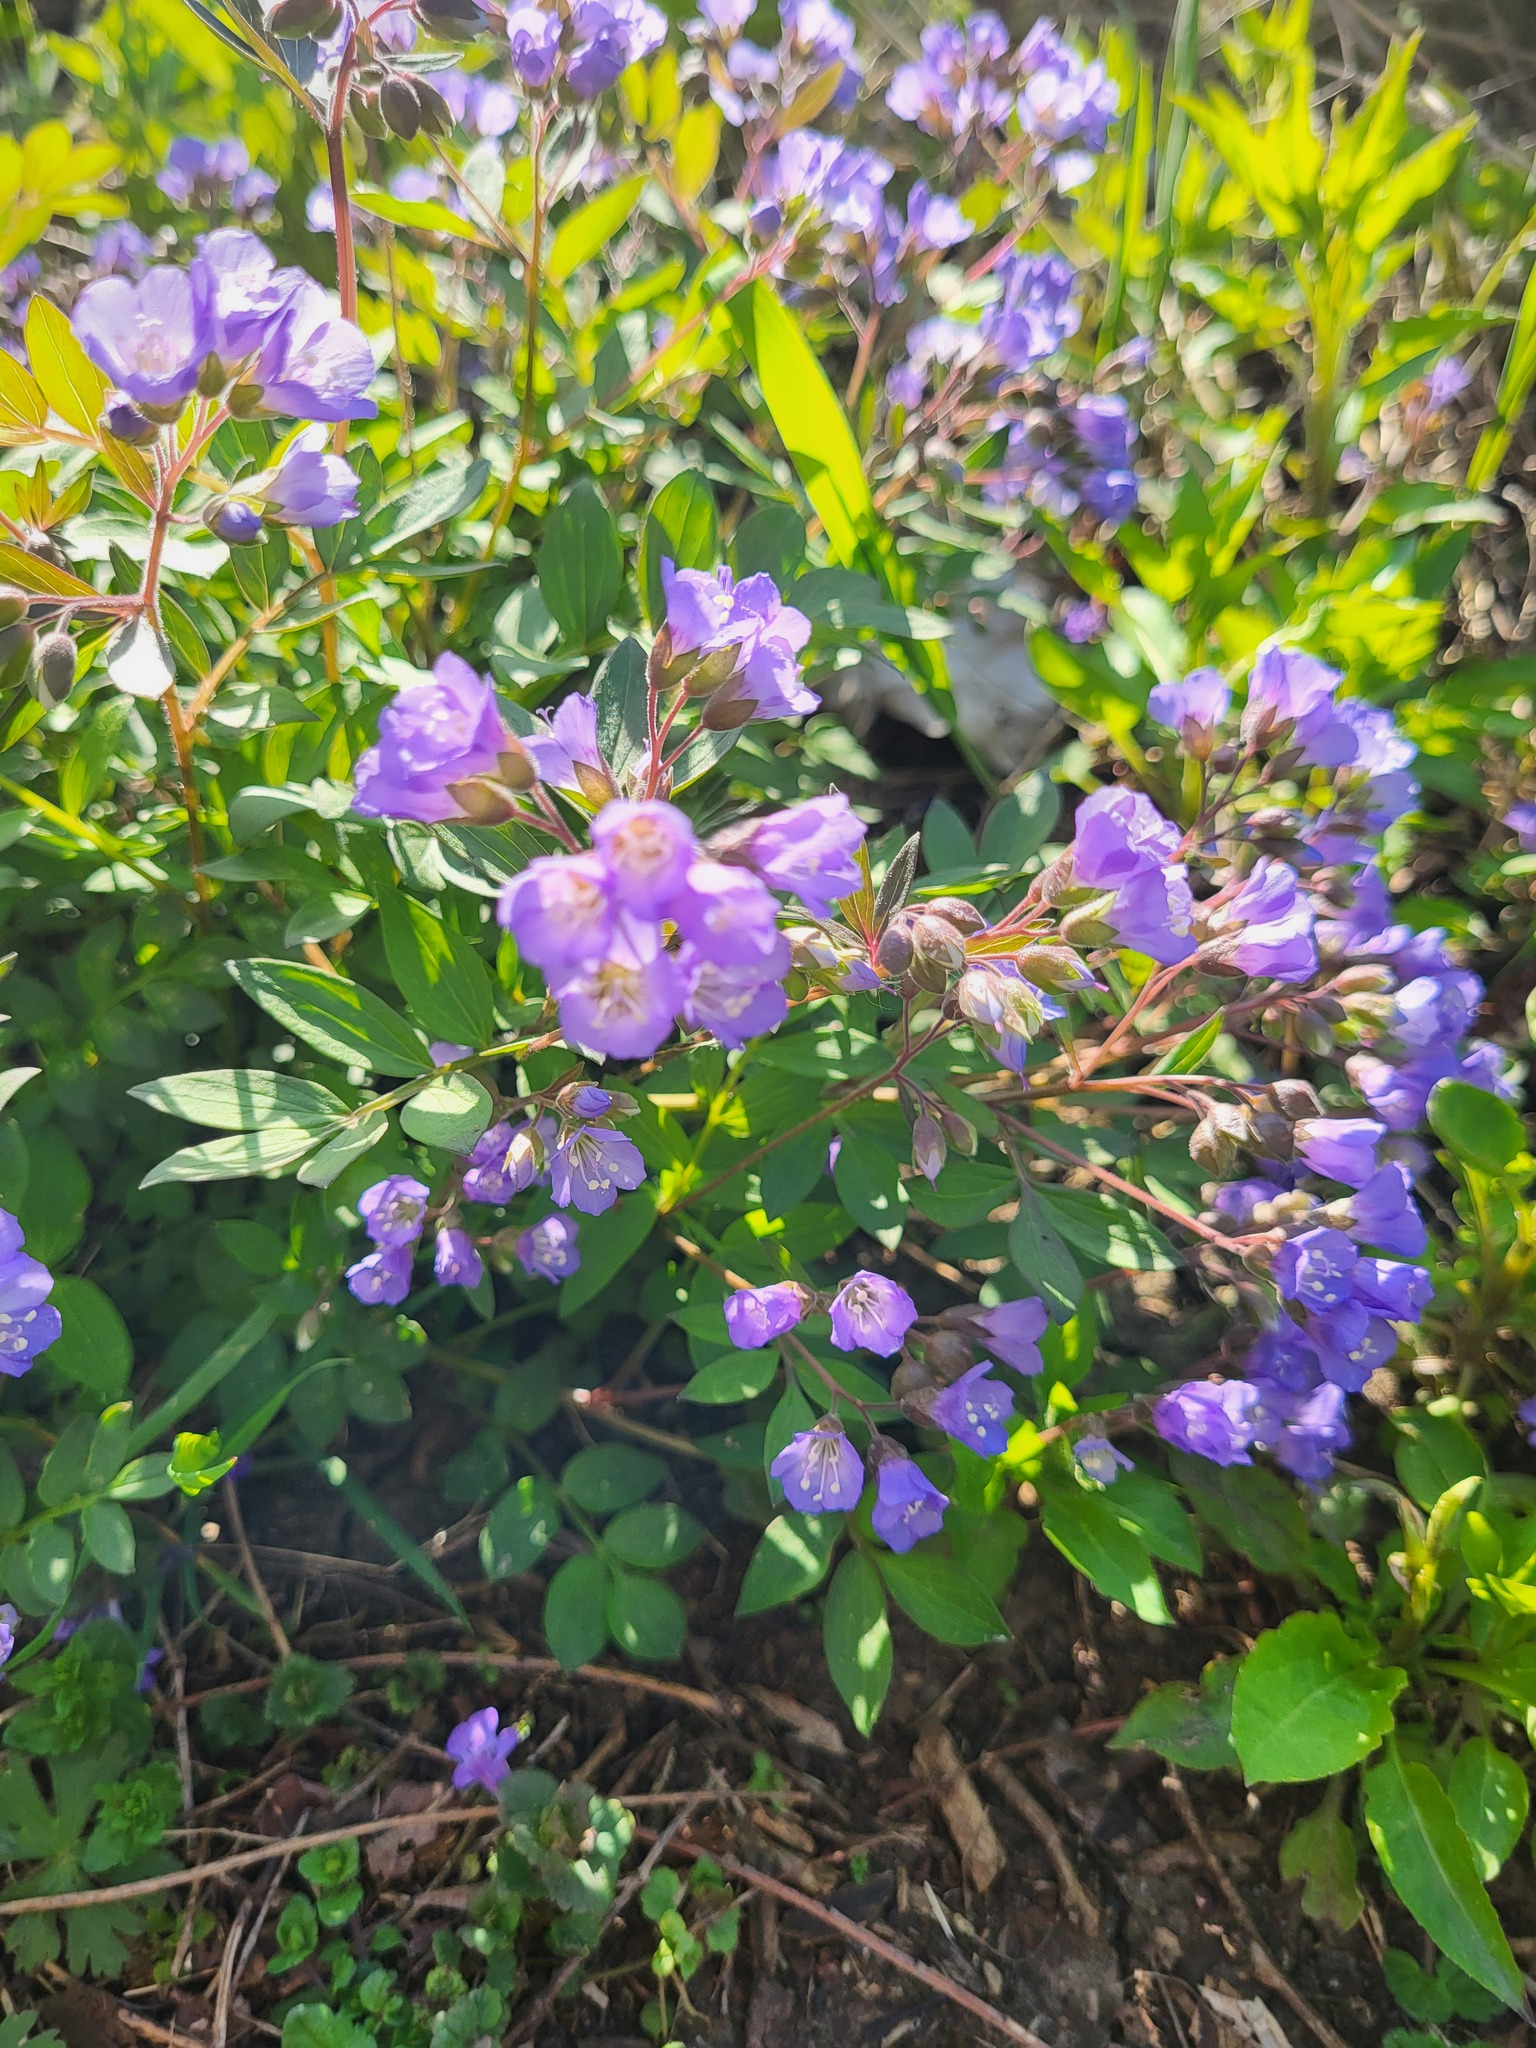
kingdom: Plantae
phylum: Tracheophyta
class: Magnoliopsida
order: Ericales
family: Polemoniaceae
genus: Polemonium
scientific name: Polemonium reptans
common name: Creeping jacob's-ladder
